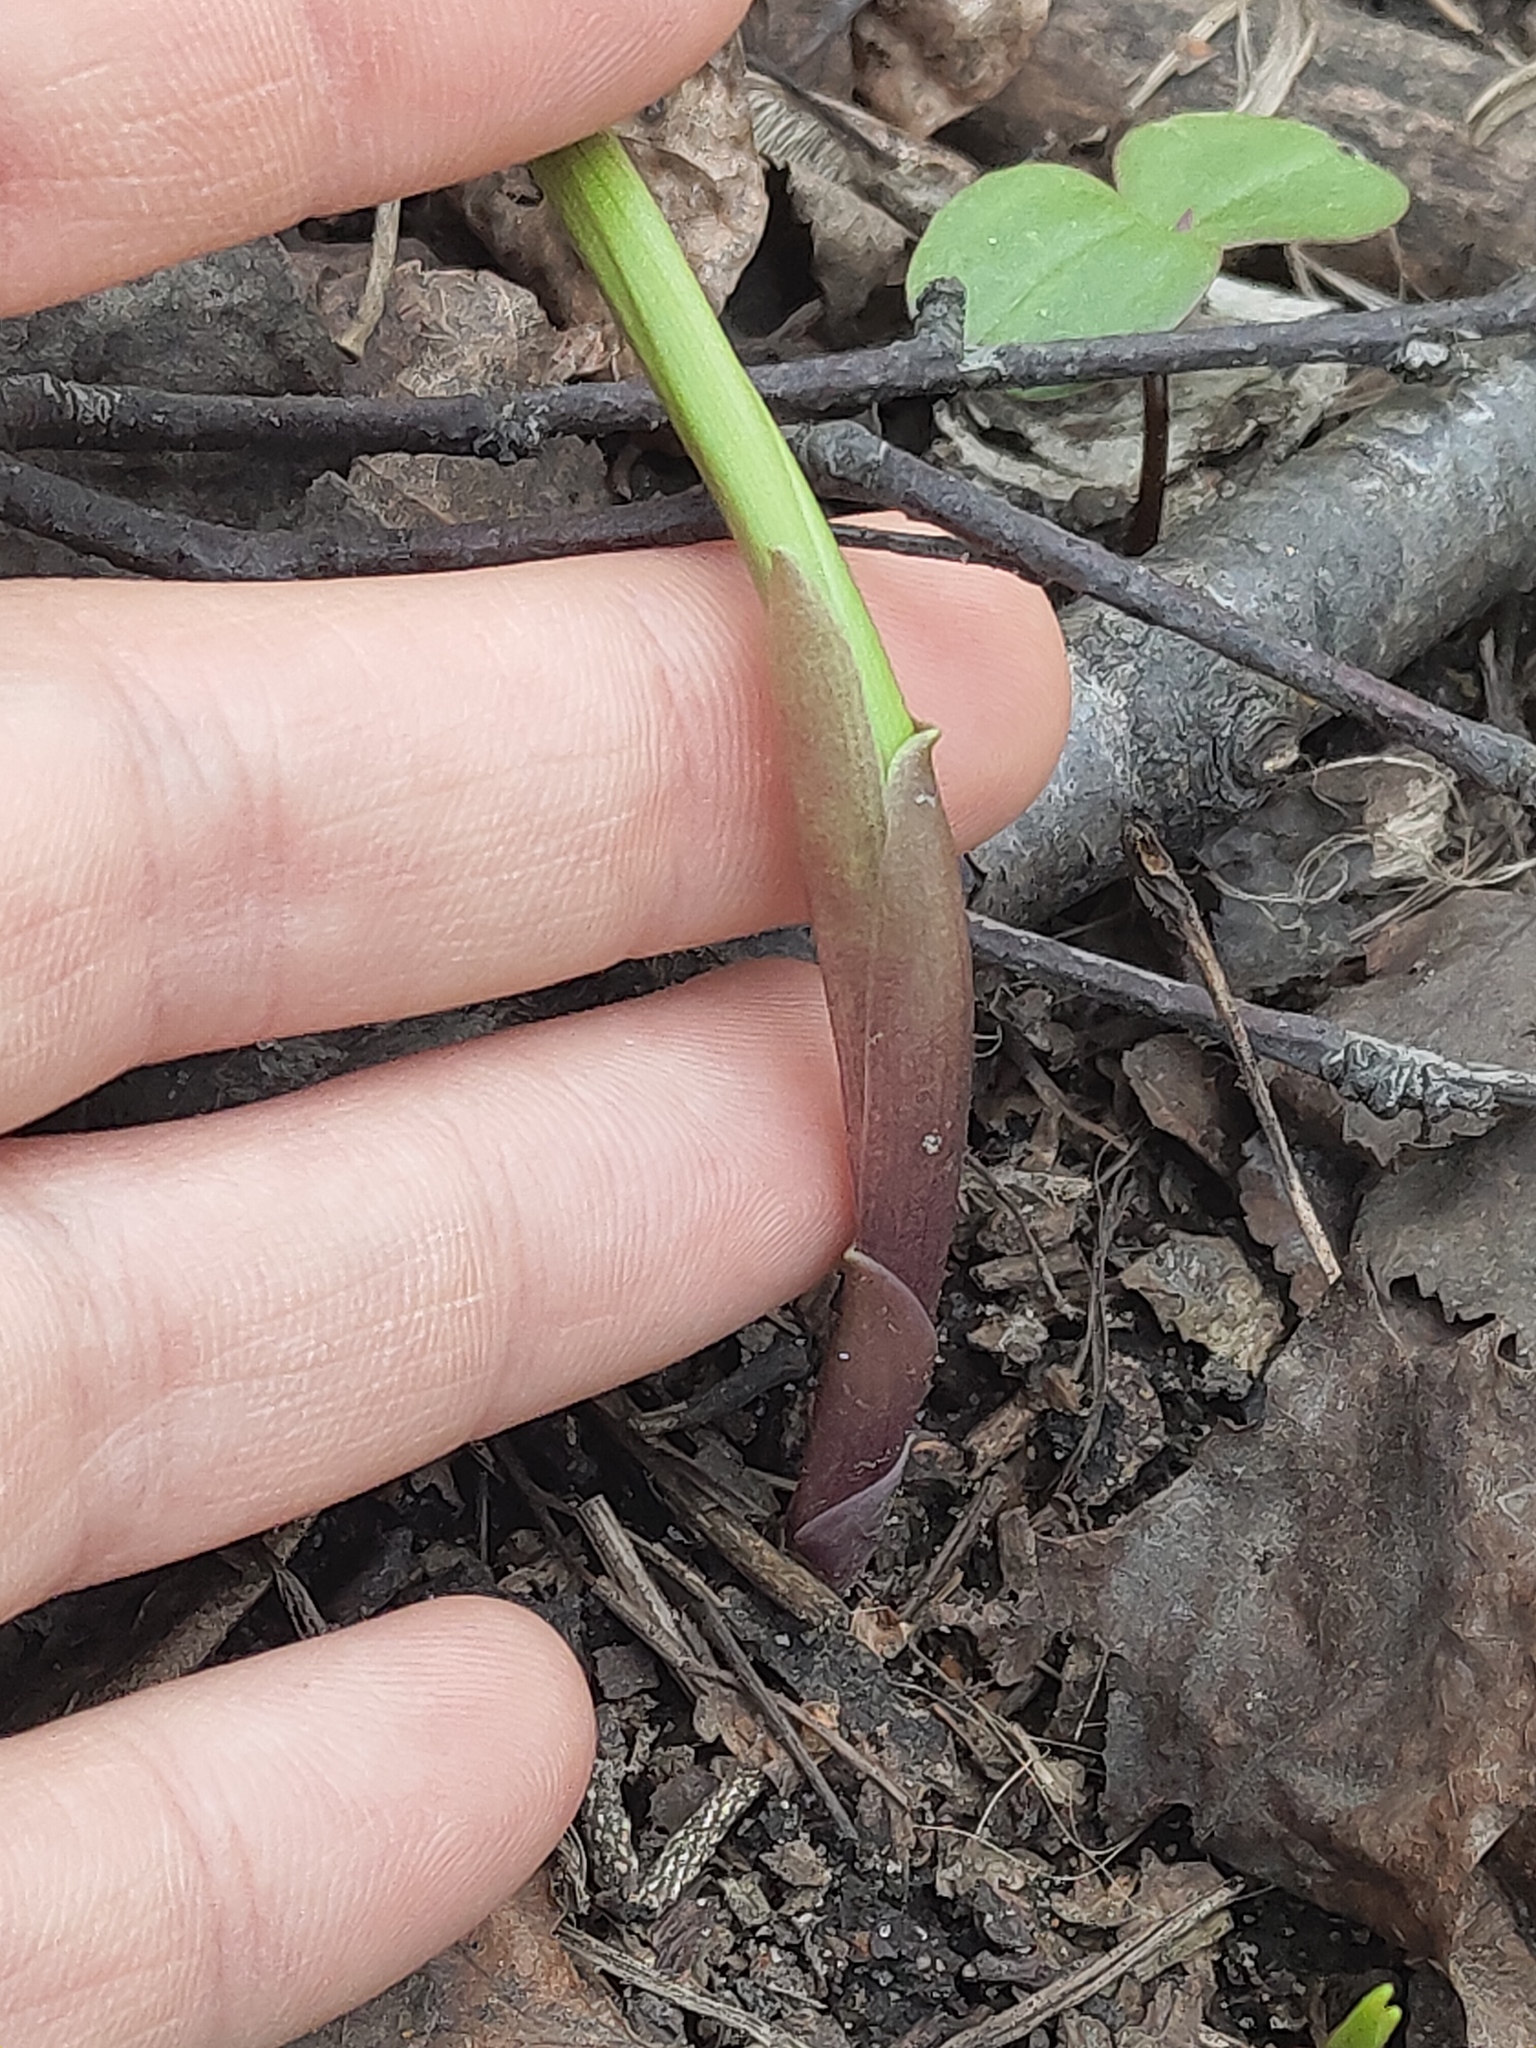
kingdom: Plantae
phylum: Tracheophyta
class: Liliopsida
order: Asparagales
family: Asparagaceae
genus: Convallaria
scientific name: Convallaria majalis
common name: Lily-of-the-valley
